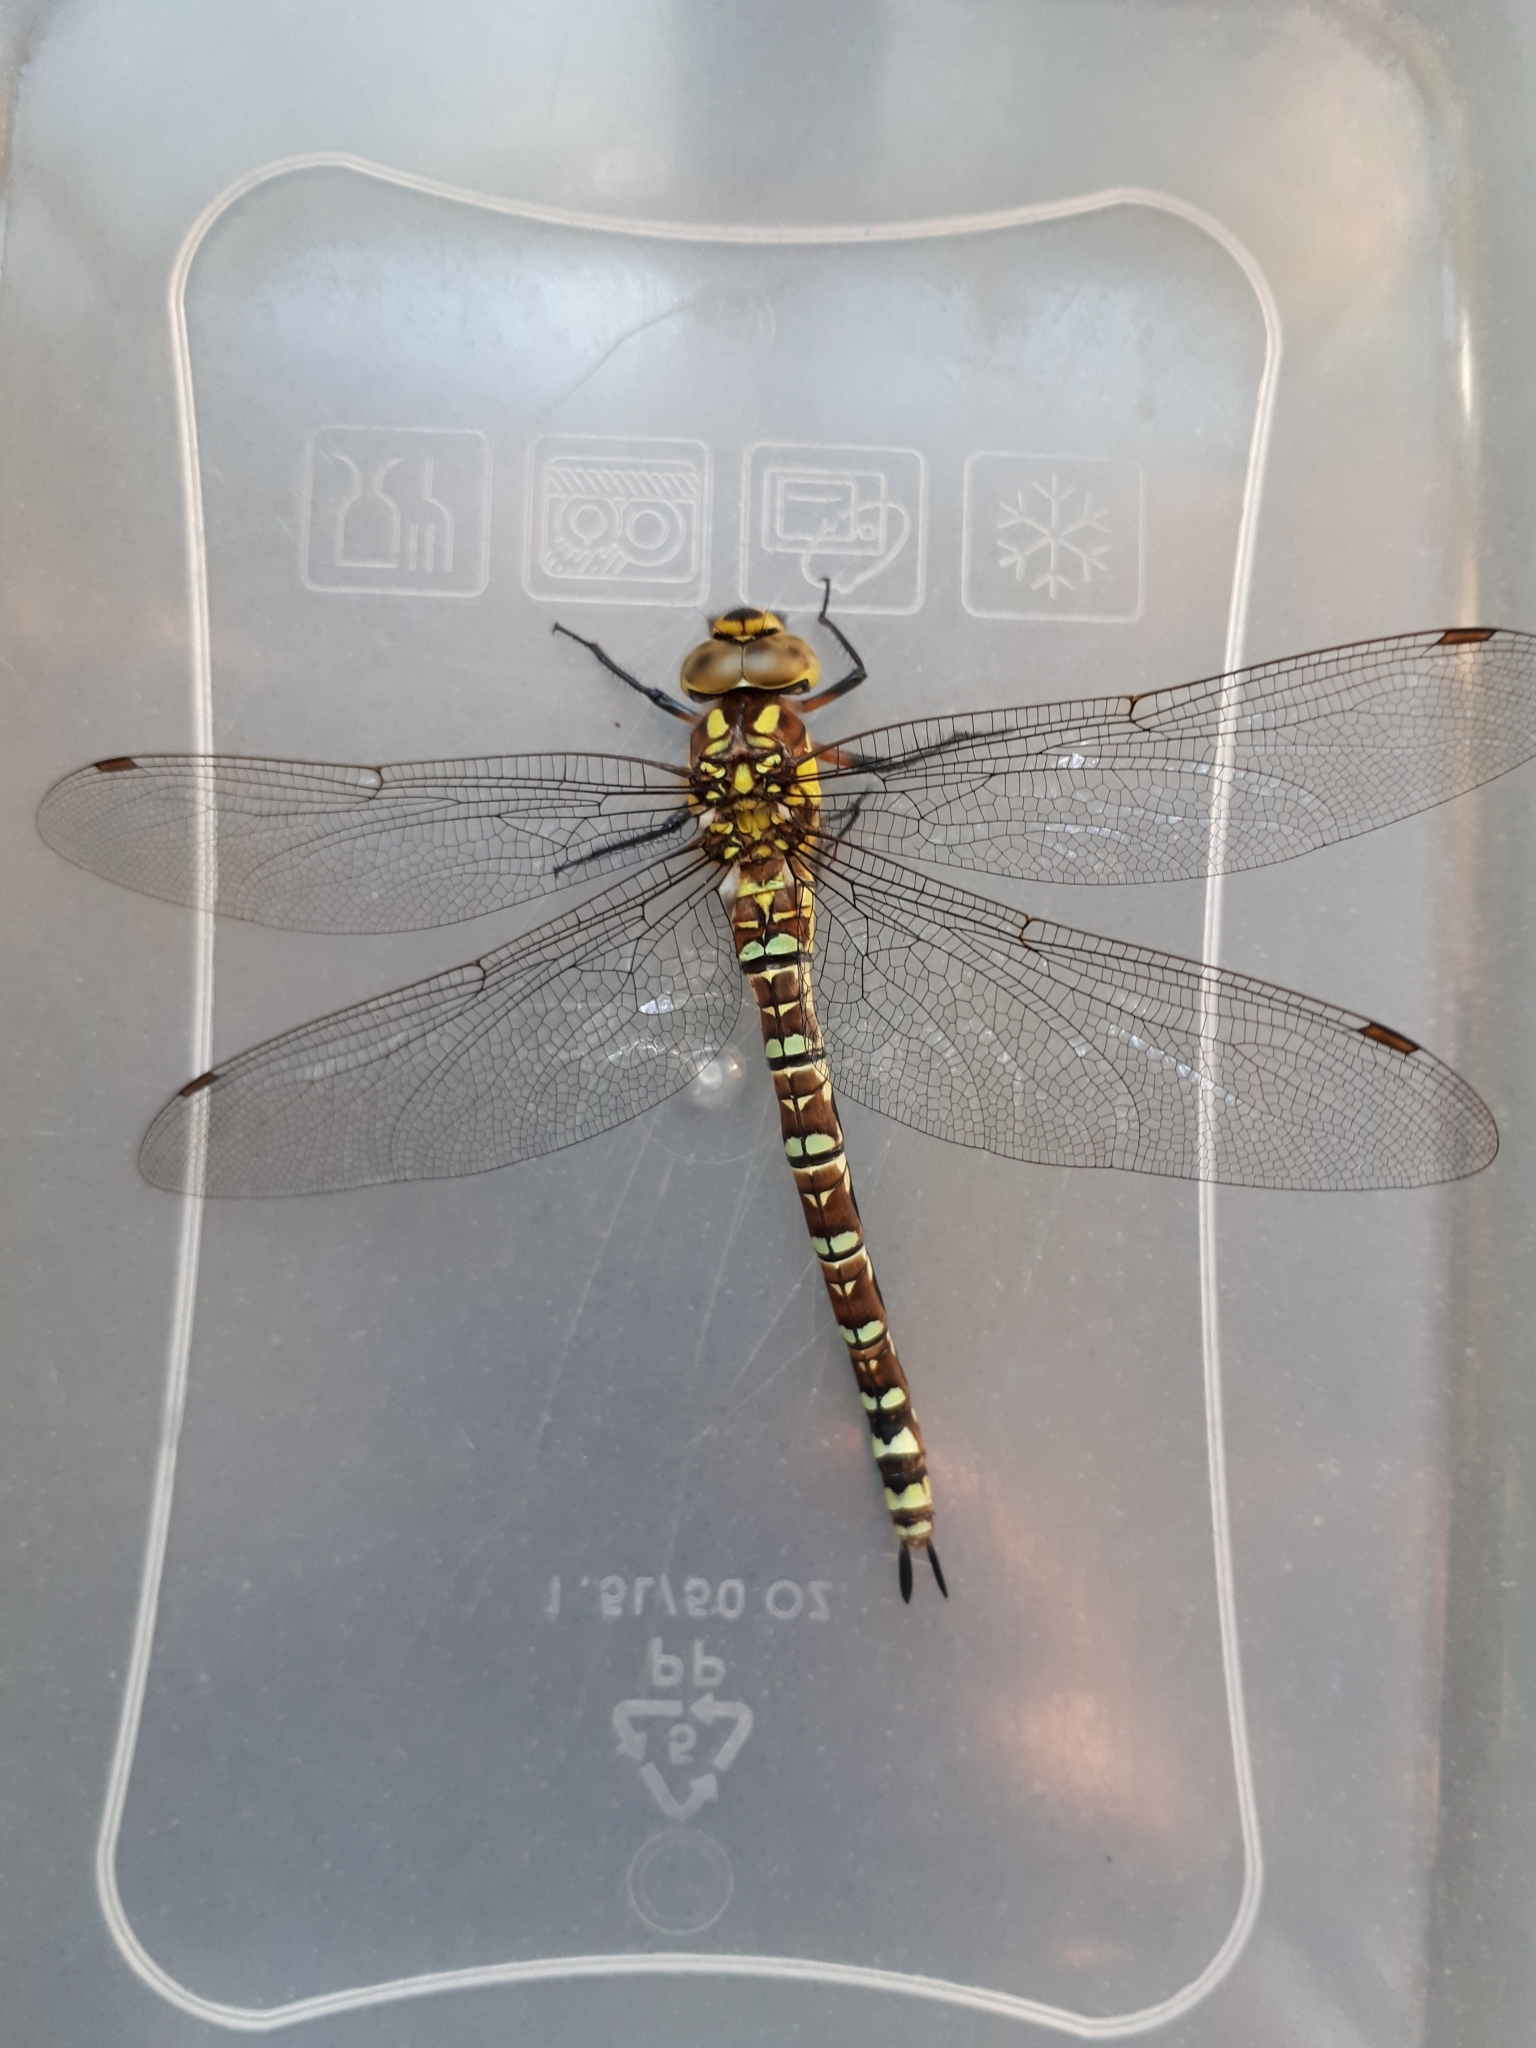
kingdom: Animalia
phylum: Arthropoda
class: Insecta
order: Odonata
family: Aeshnidae
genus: Aeshna
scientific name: Aeshna cyanea
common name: Southern hawker
